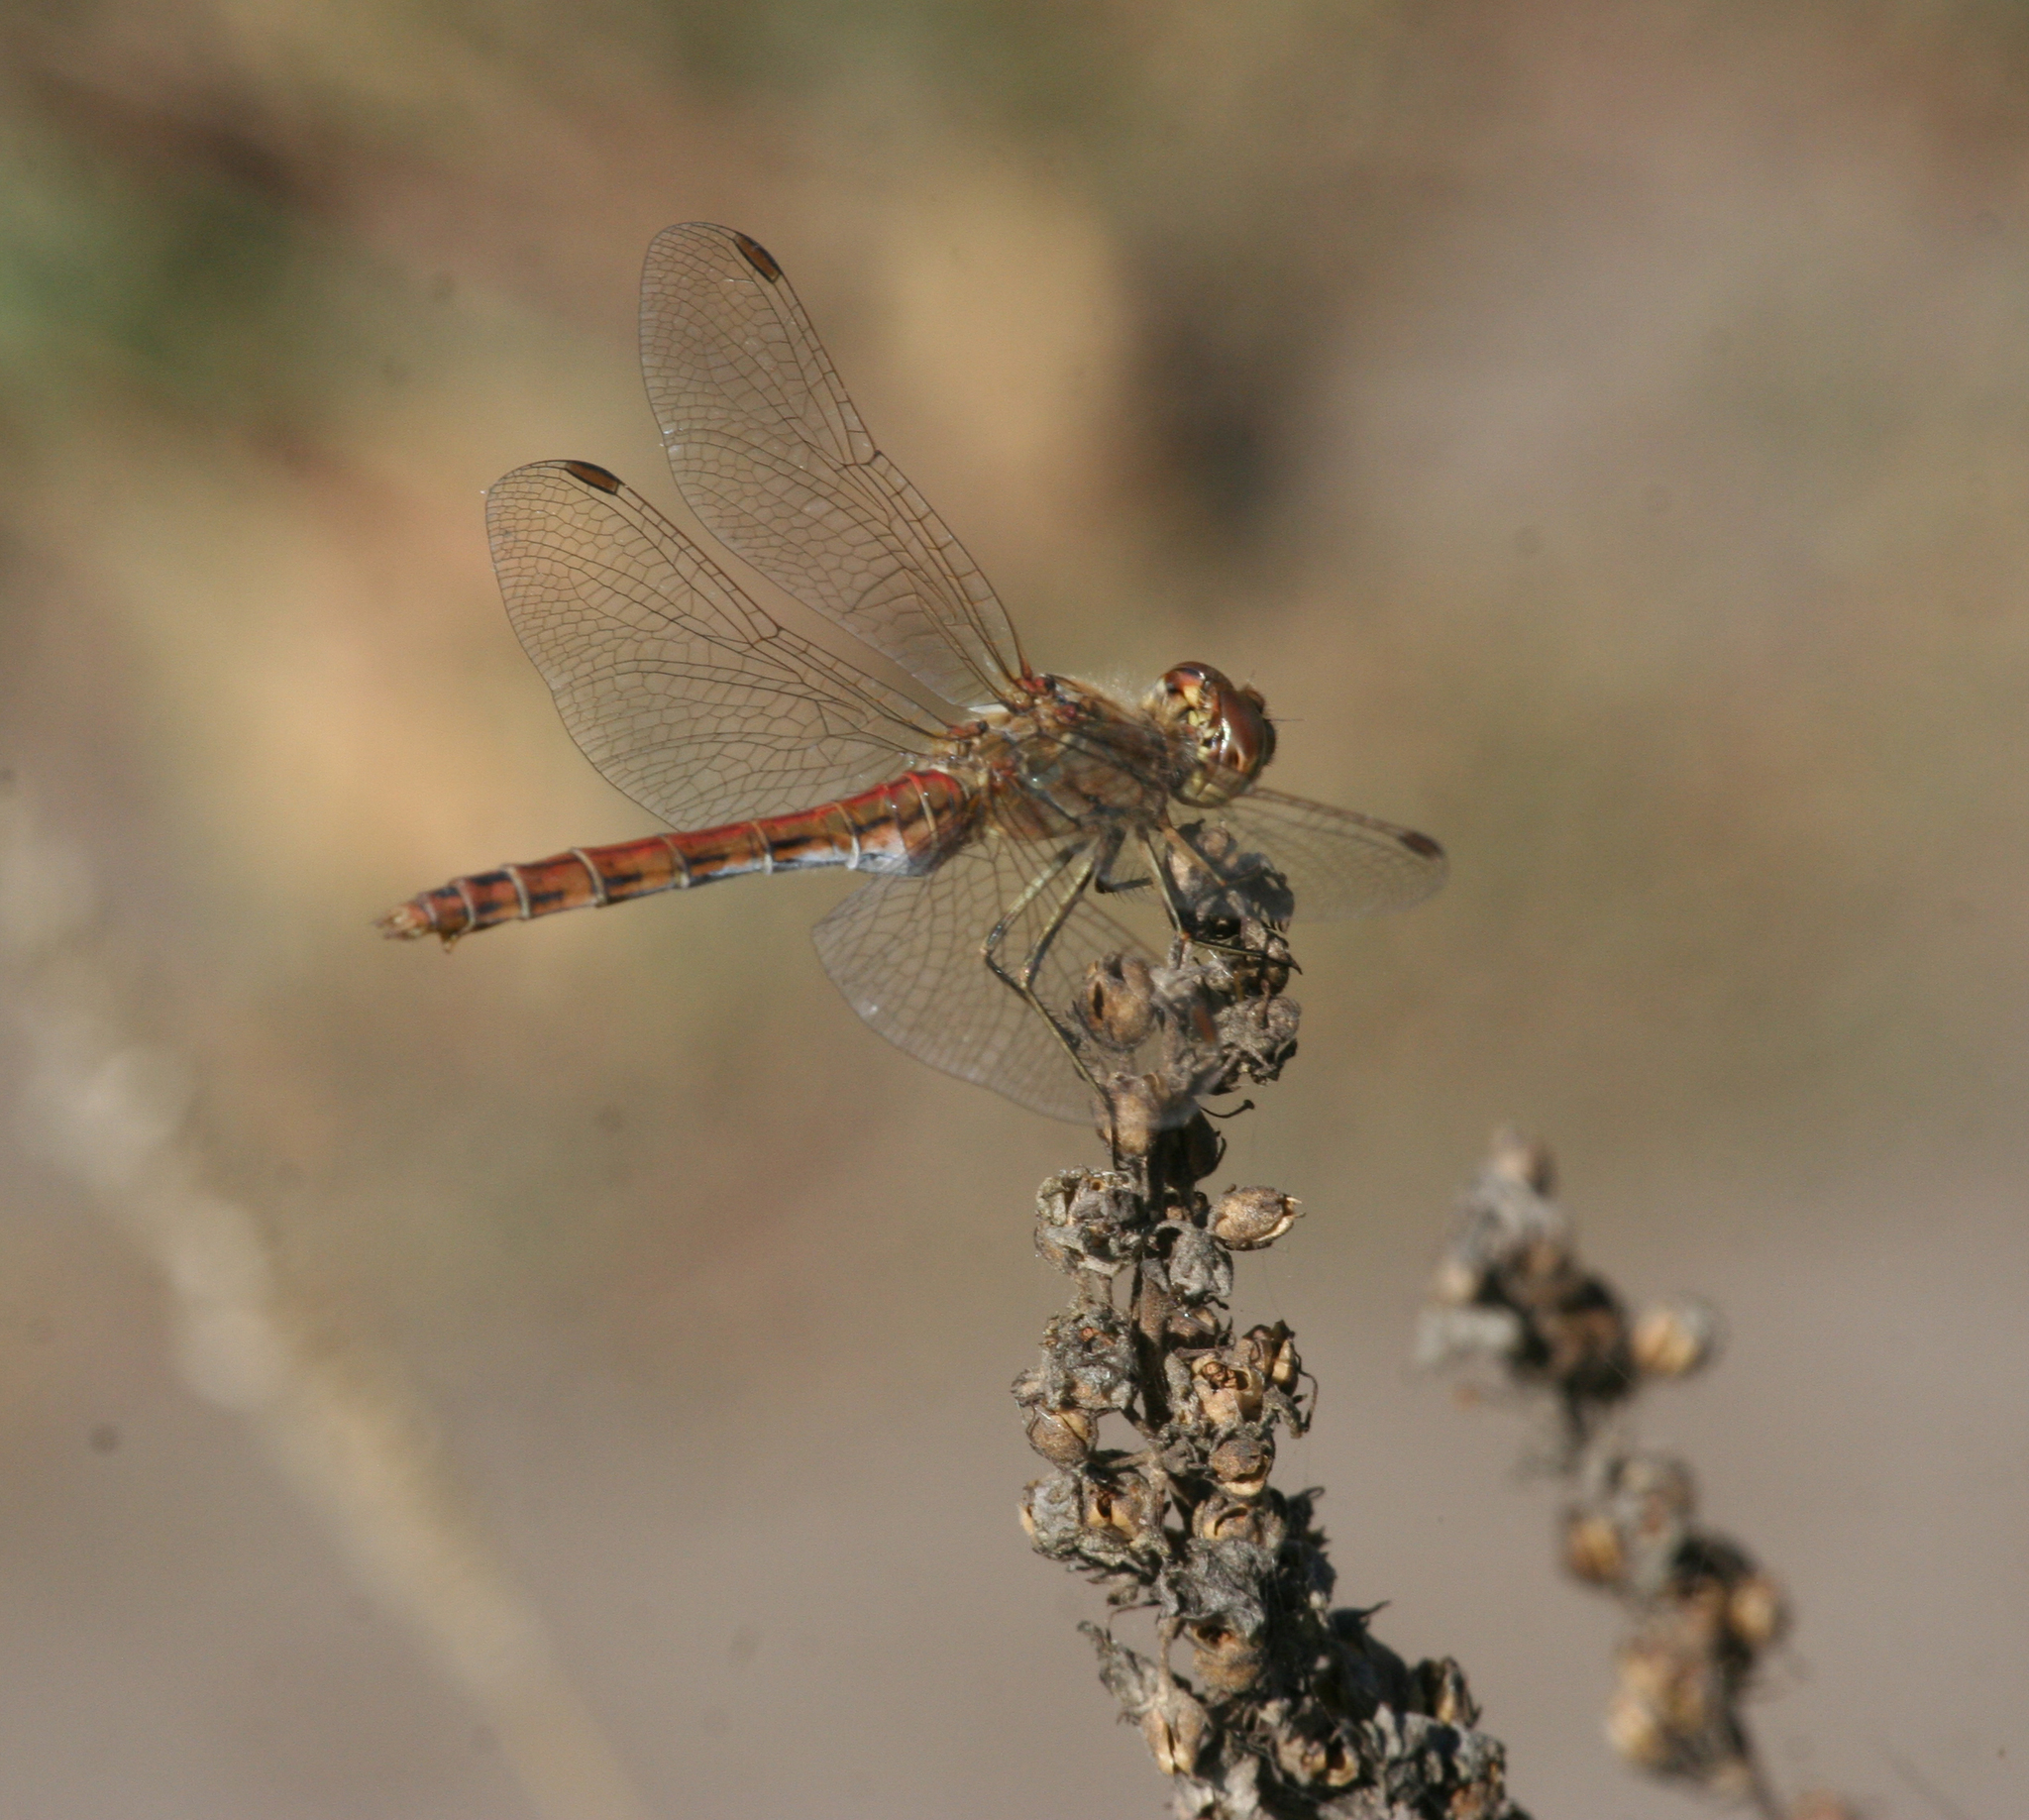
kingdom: Animalia
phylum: Arthropoda
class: Insecta
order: Odonata
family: Libellulidae
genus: Sympetrum
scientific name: Sympetrum vulgatum
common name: Vagrant darter
